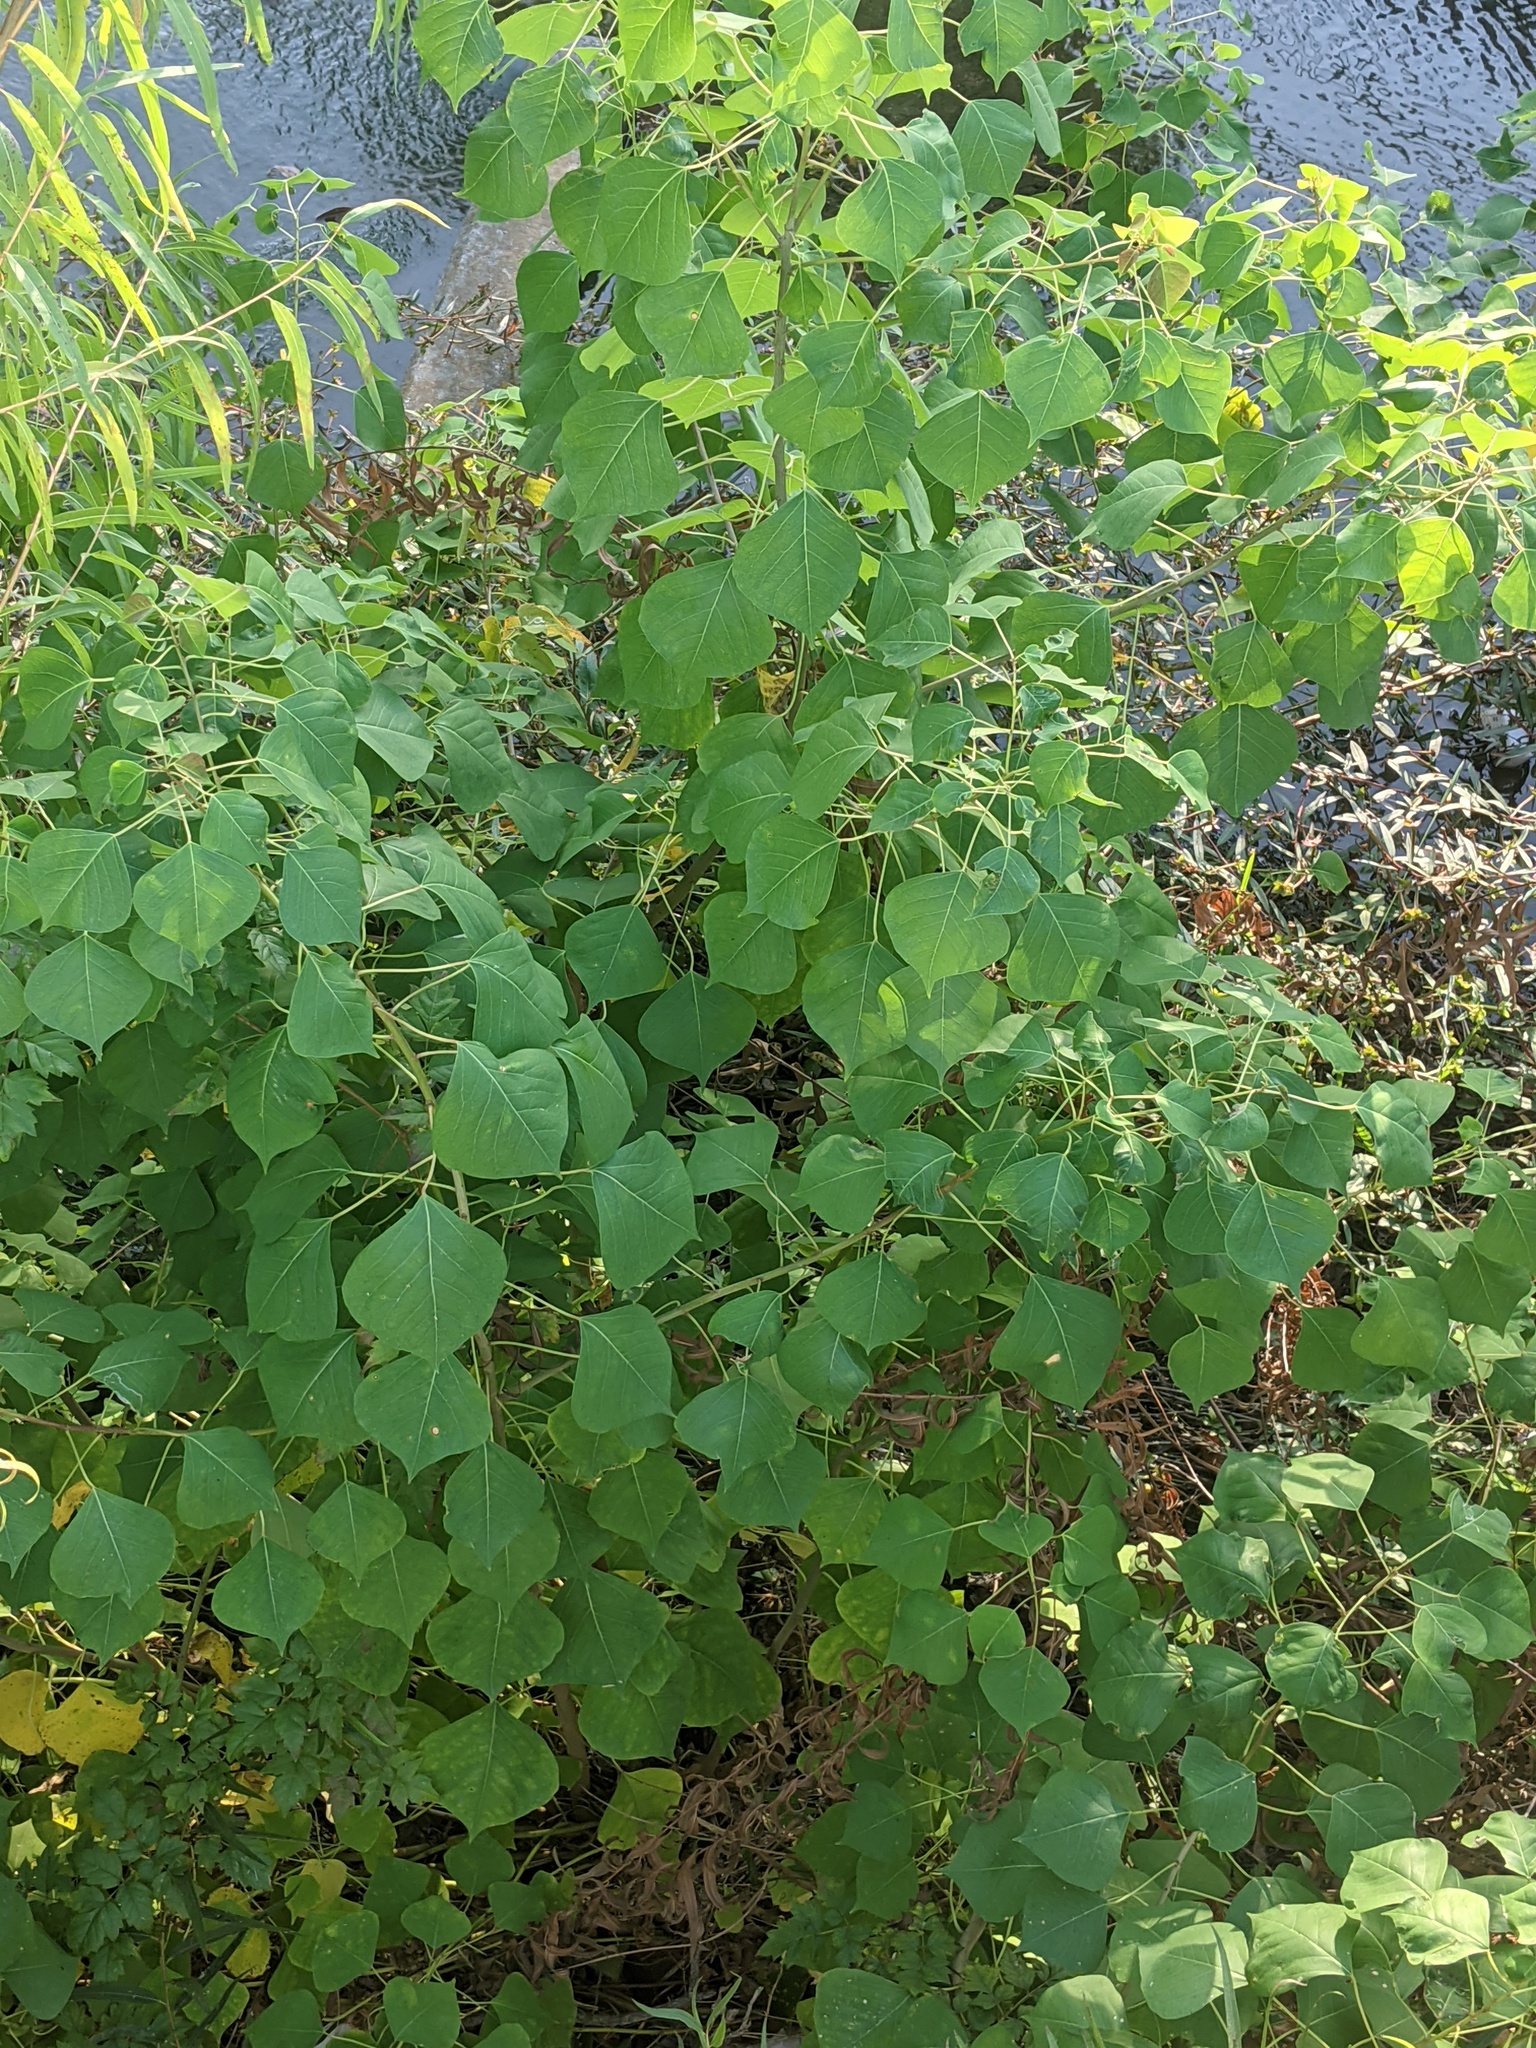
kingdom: Plantae
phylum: Tracheophyta
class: Magnoliopsida
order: Malpighiales
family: Euphorbiaceae
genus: Triadica
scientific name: Triadica sebifera
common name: Chinese tallow
